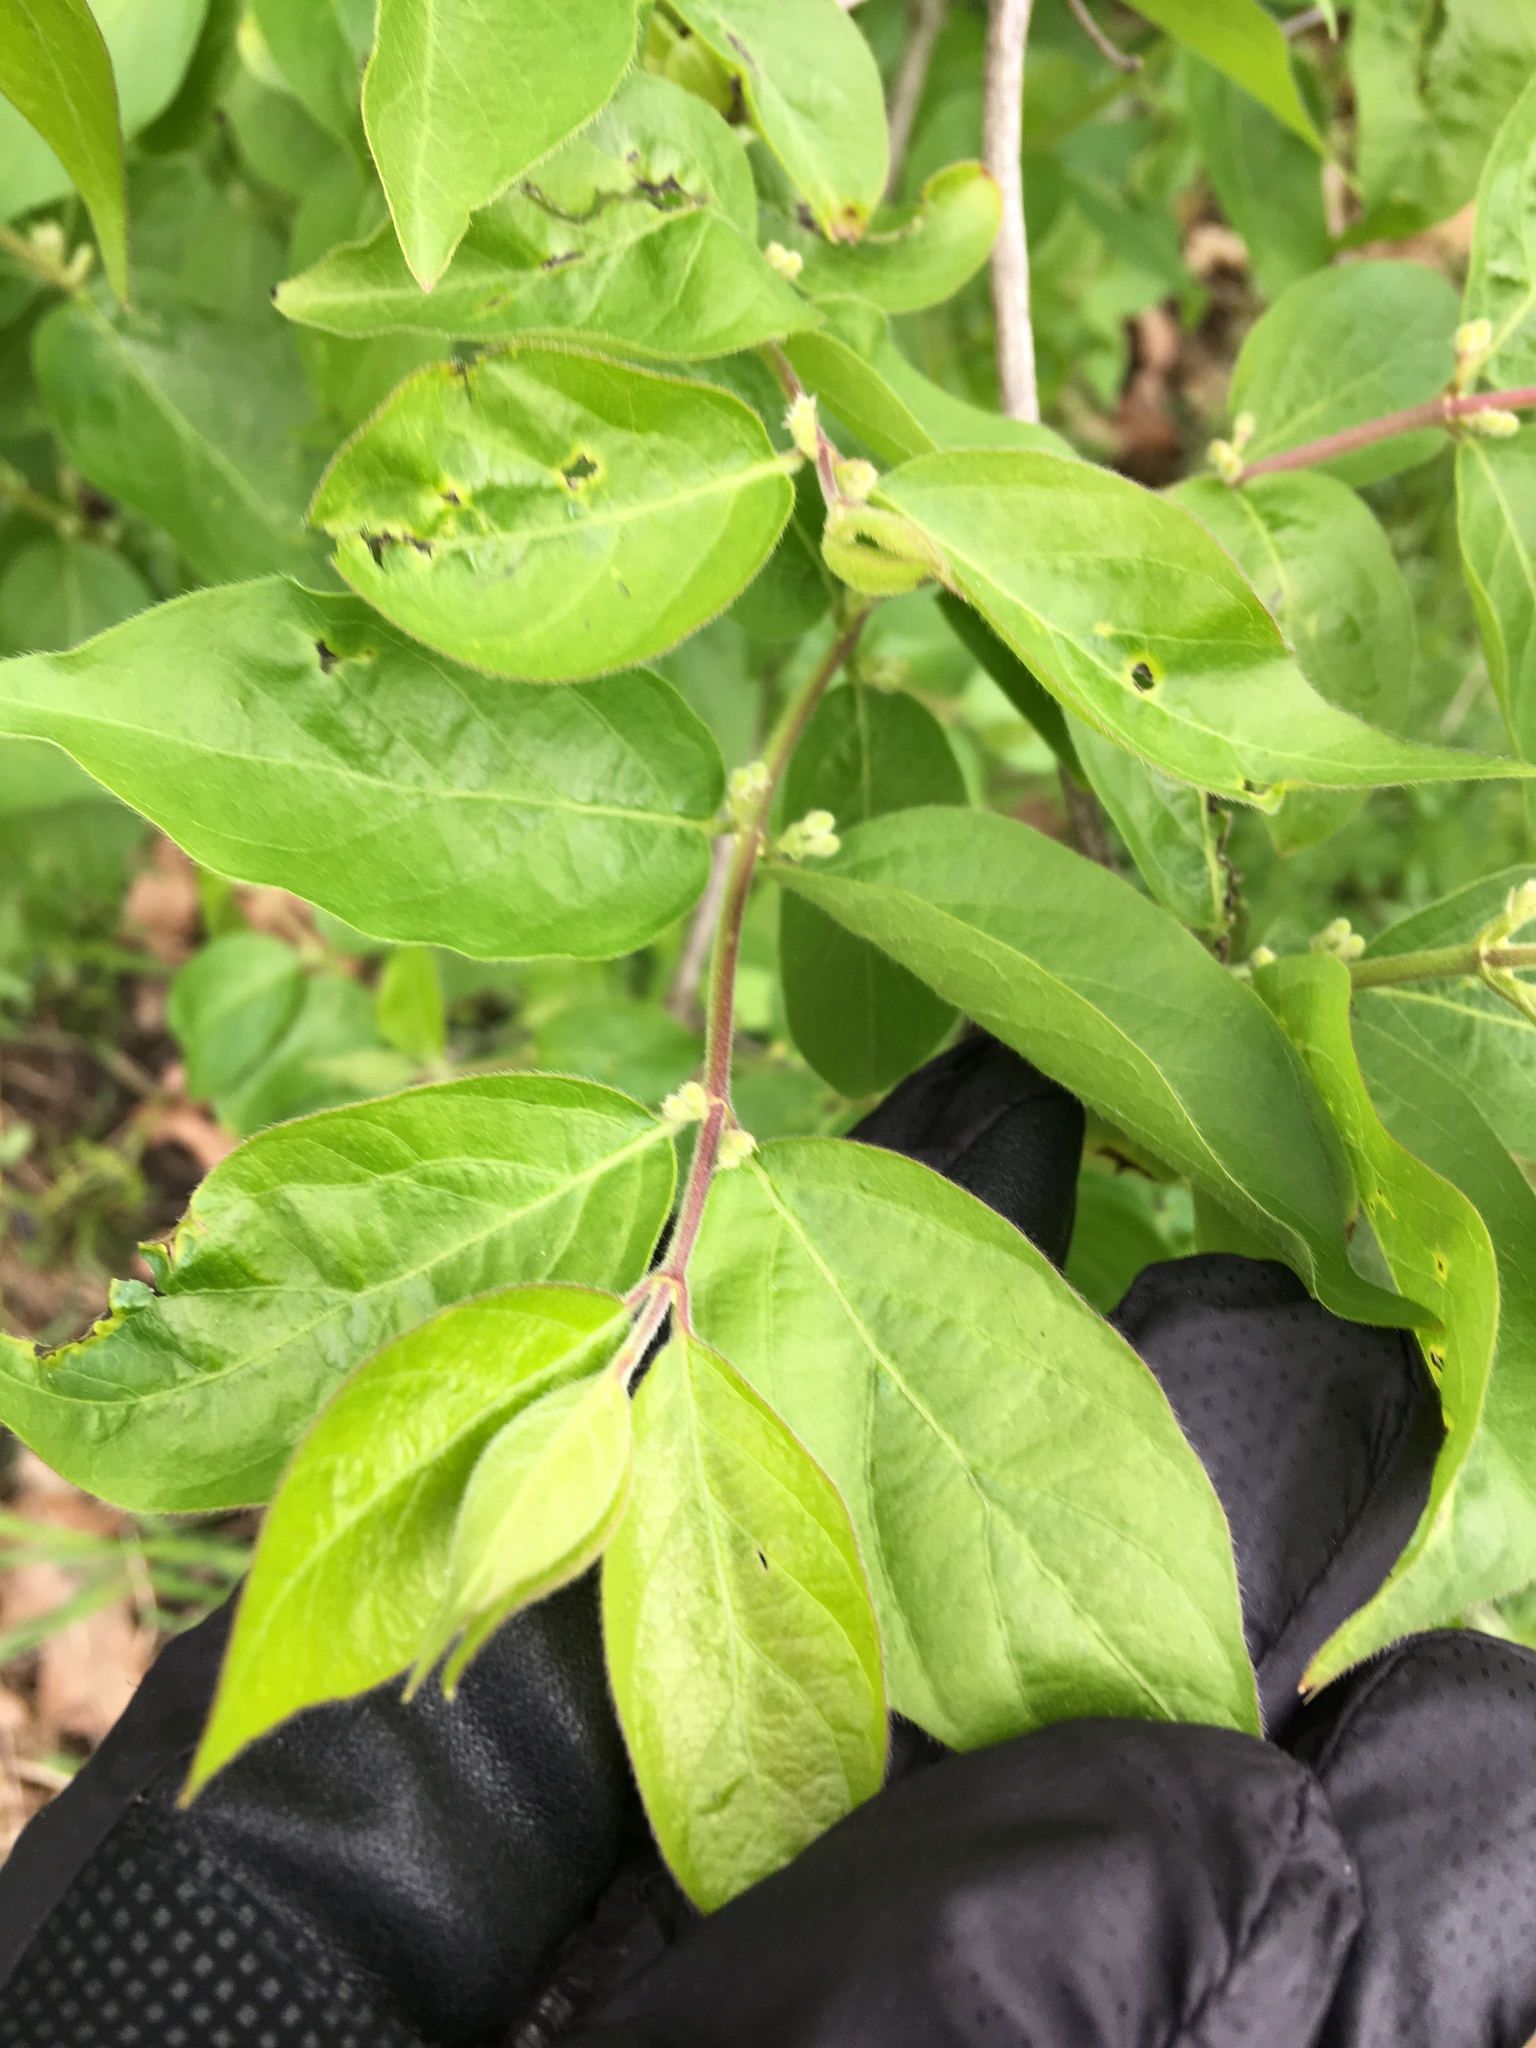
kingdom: Plantae
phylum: Tracheophyta
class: Magnoliopsida
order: Dipsacales
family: Caprifoliaceae
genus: Lonicera
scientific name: Lonicera maackii
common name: Amur honeysuckle
